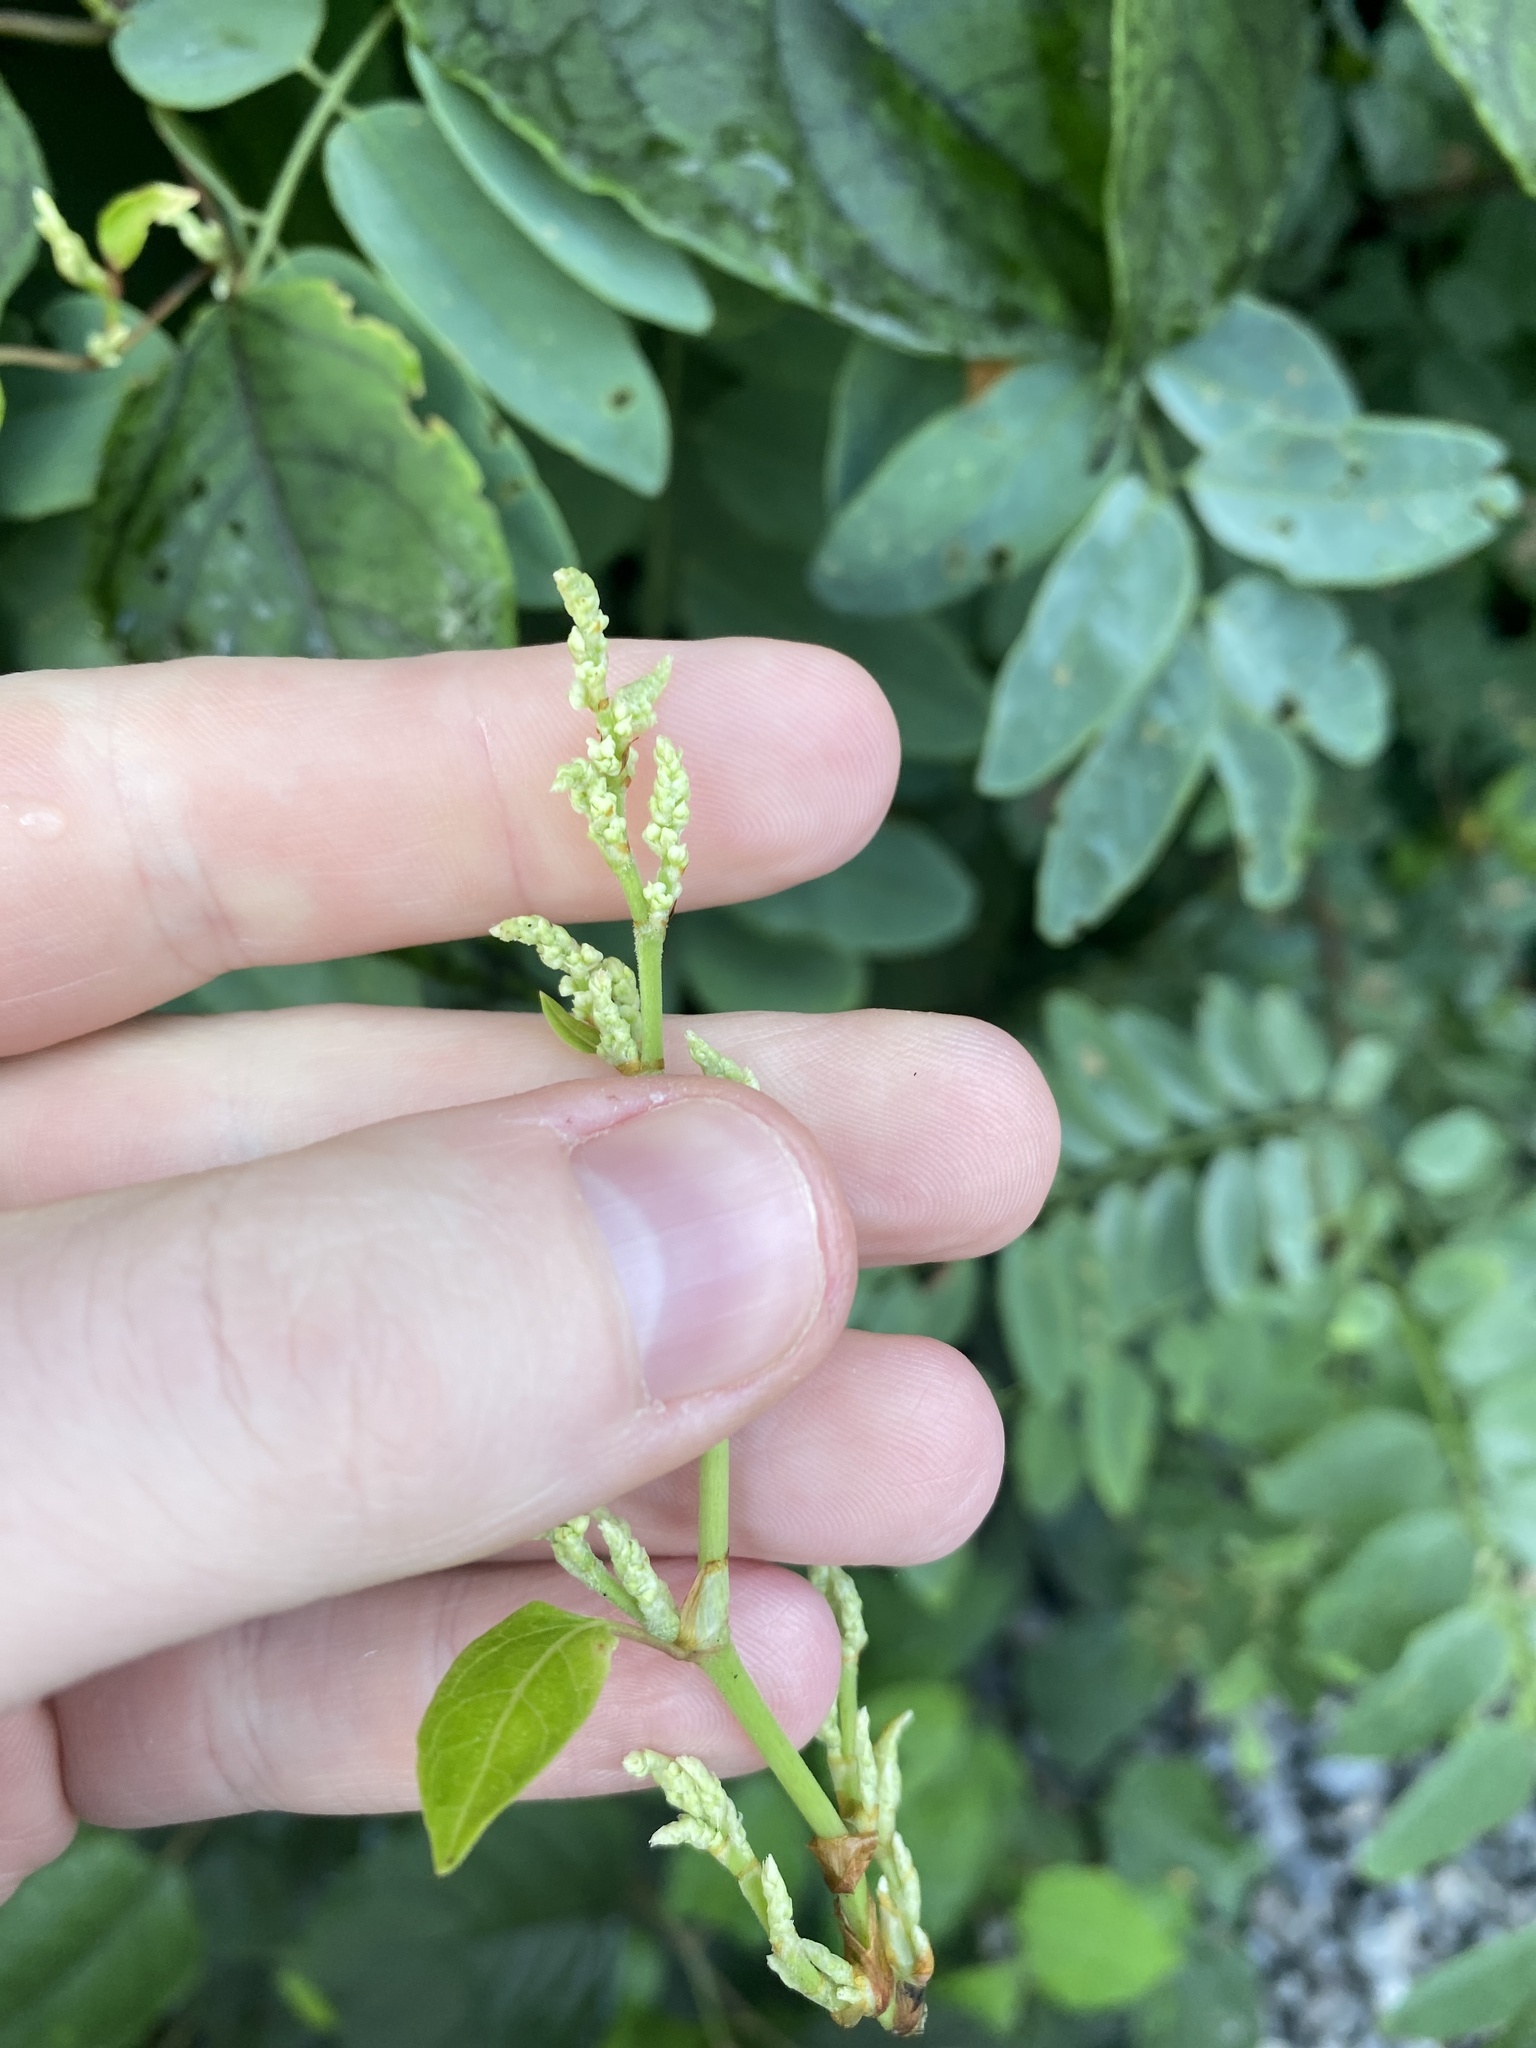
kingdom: Plantae
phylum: Tracheophyta
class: Magnoliopsida
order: Caryophyllales
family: Polygonaceae
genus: Reynoutria
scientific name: Reynoutria bohemica
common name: Bohemian knotweed
